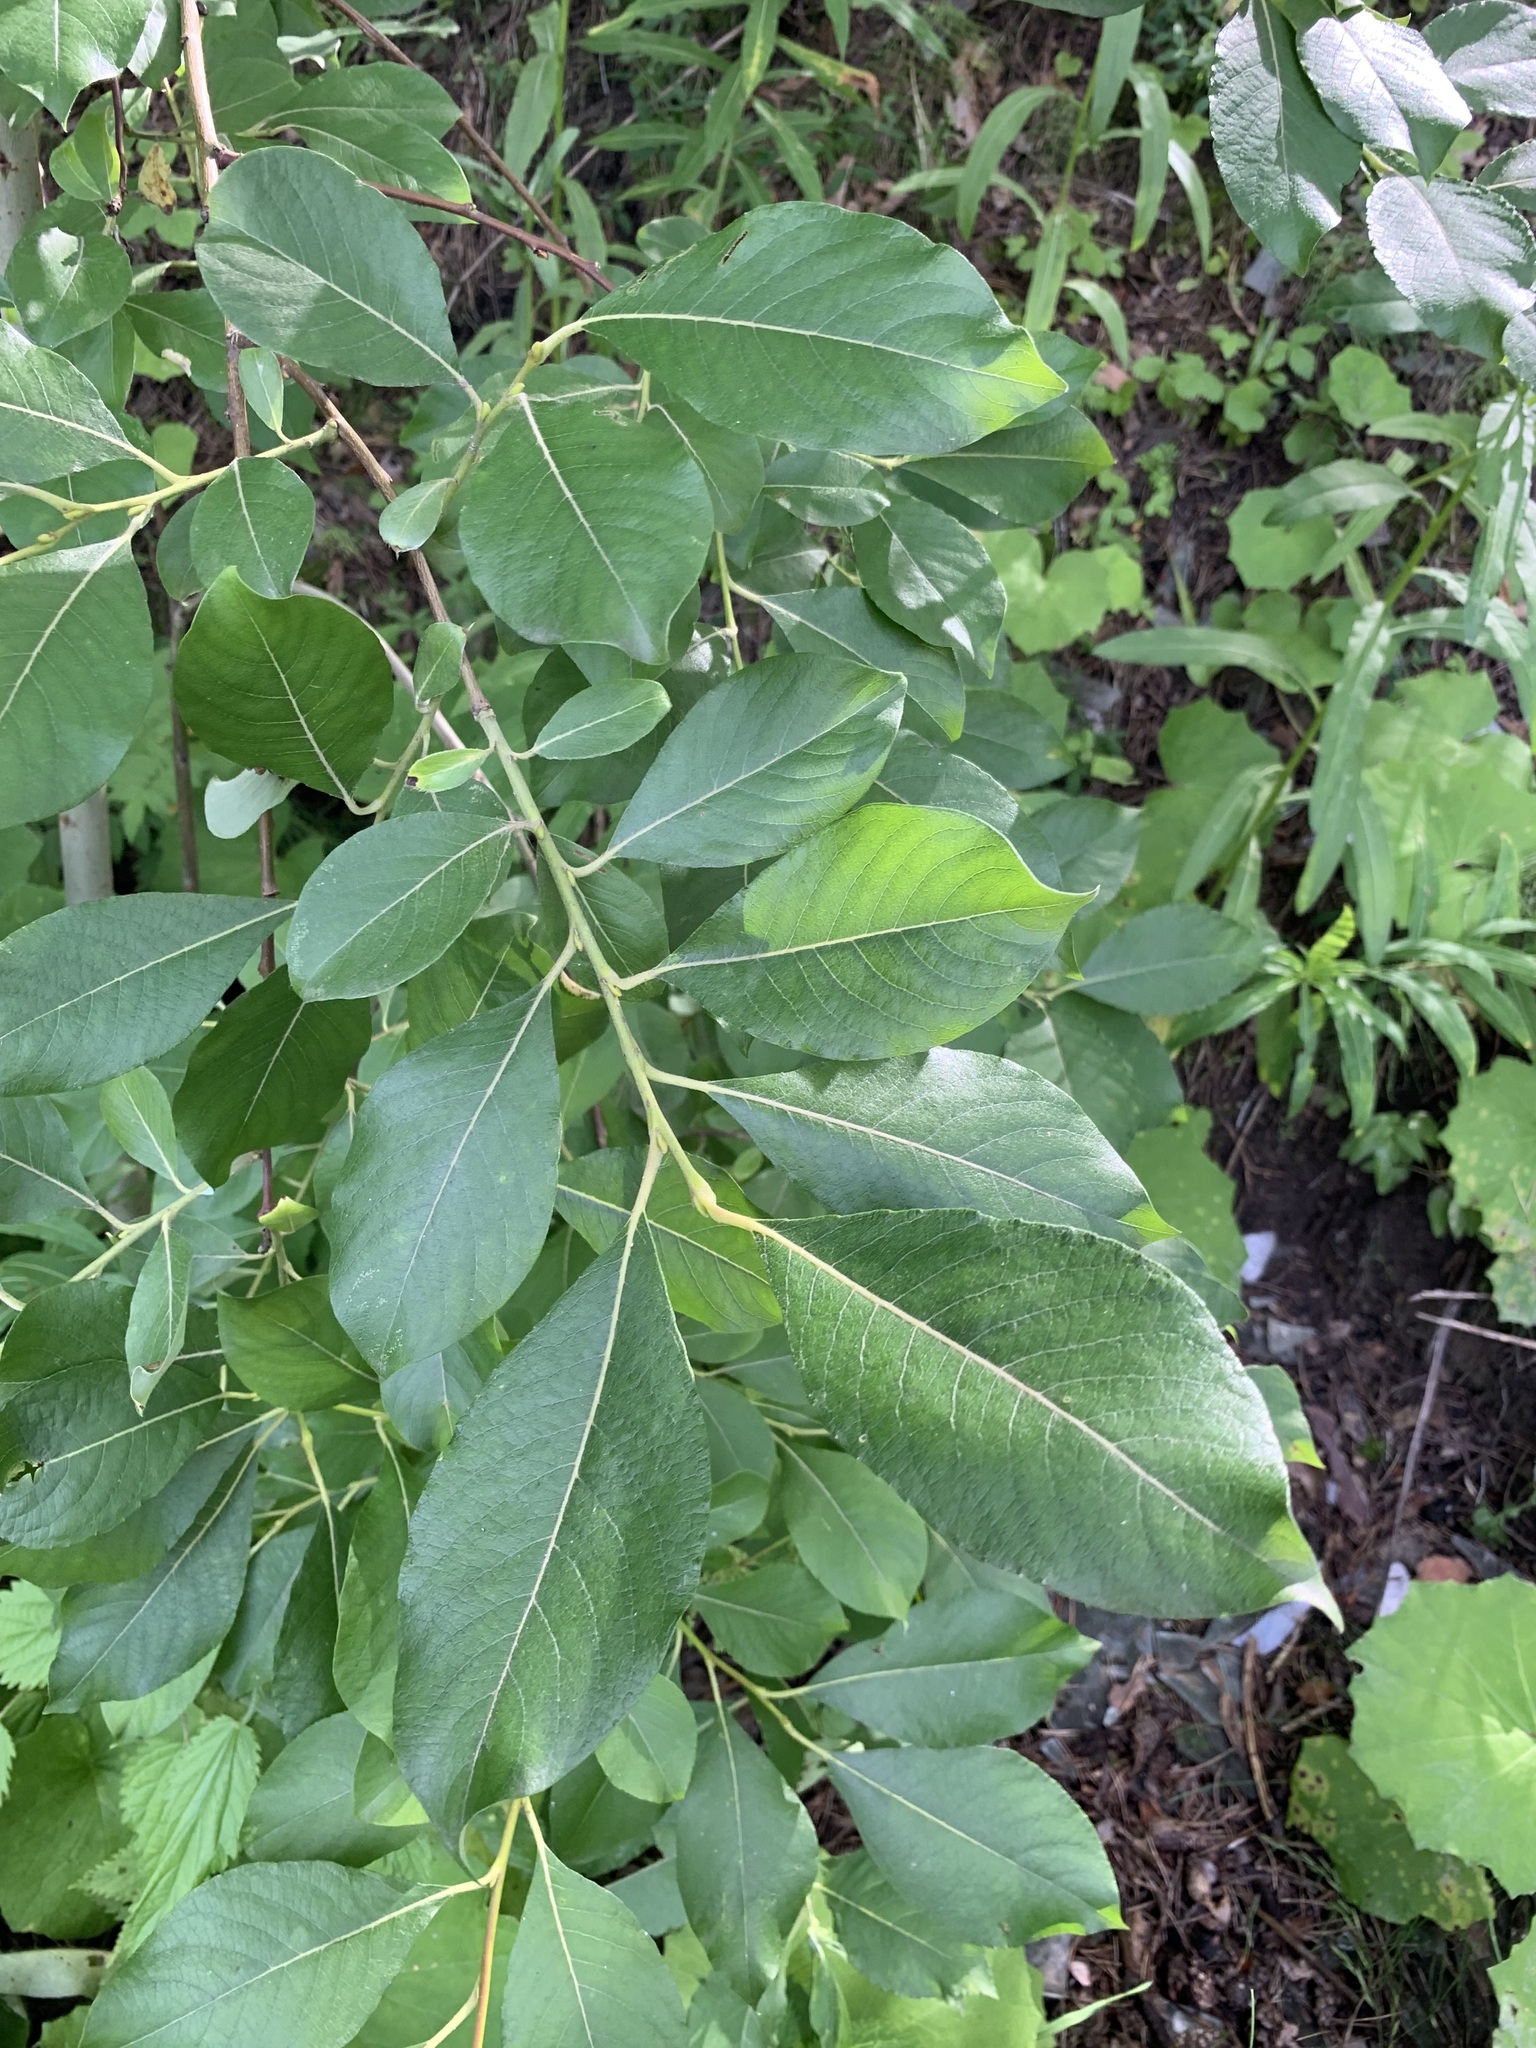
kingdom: Plantae
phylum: Tracheophyta
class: Magnoliopsida
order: Malpighiales
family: Salicaceae
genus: Salix
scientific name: Salix caprea
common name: Goat willow
